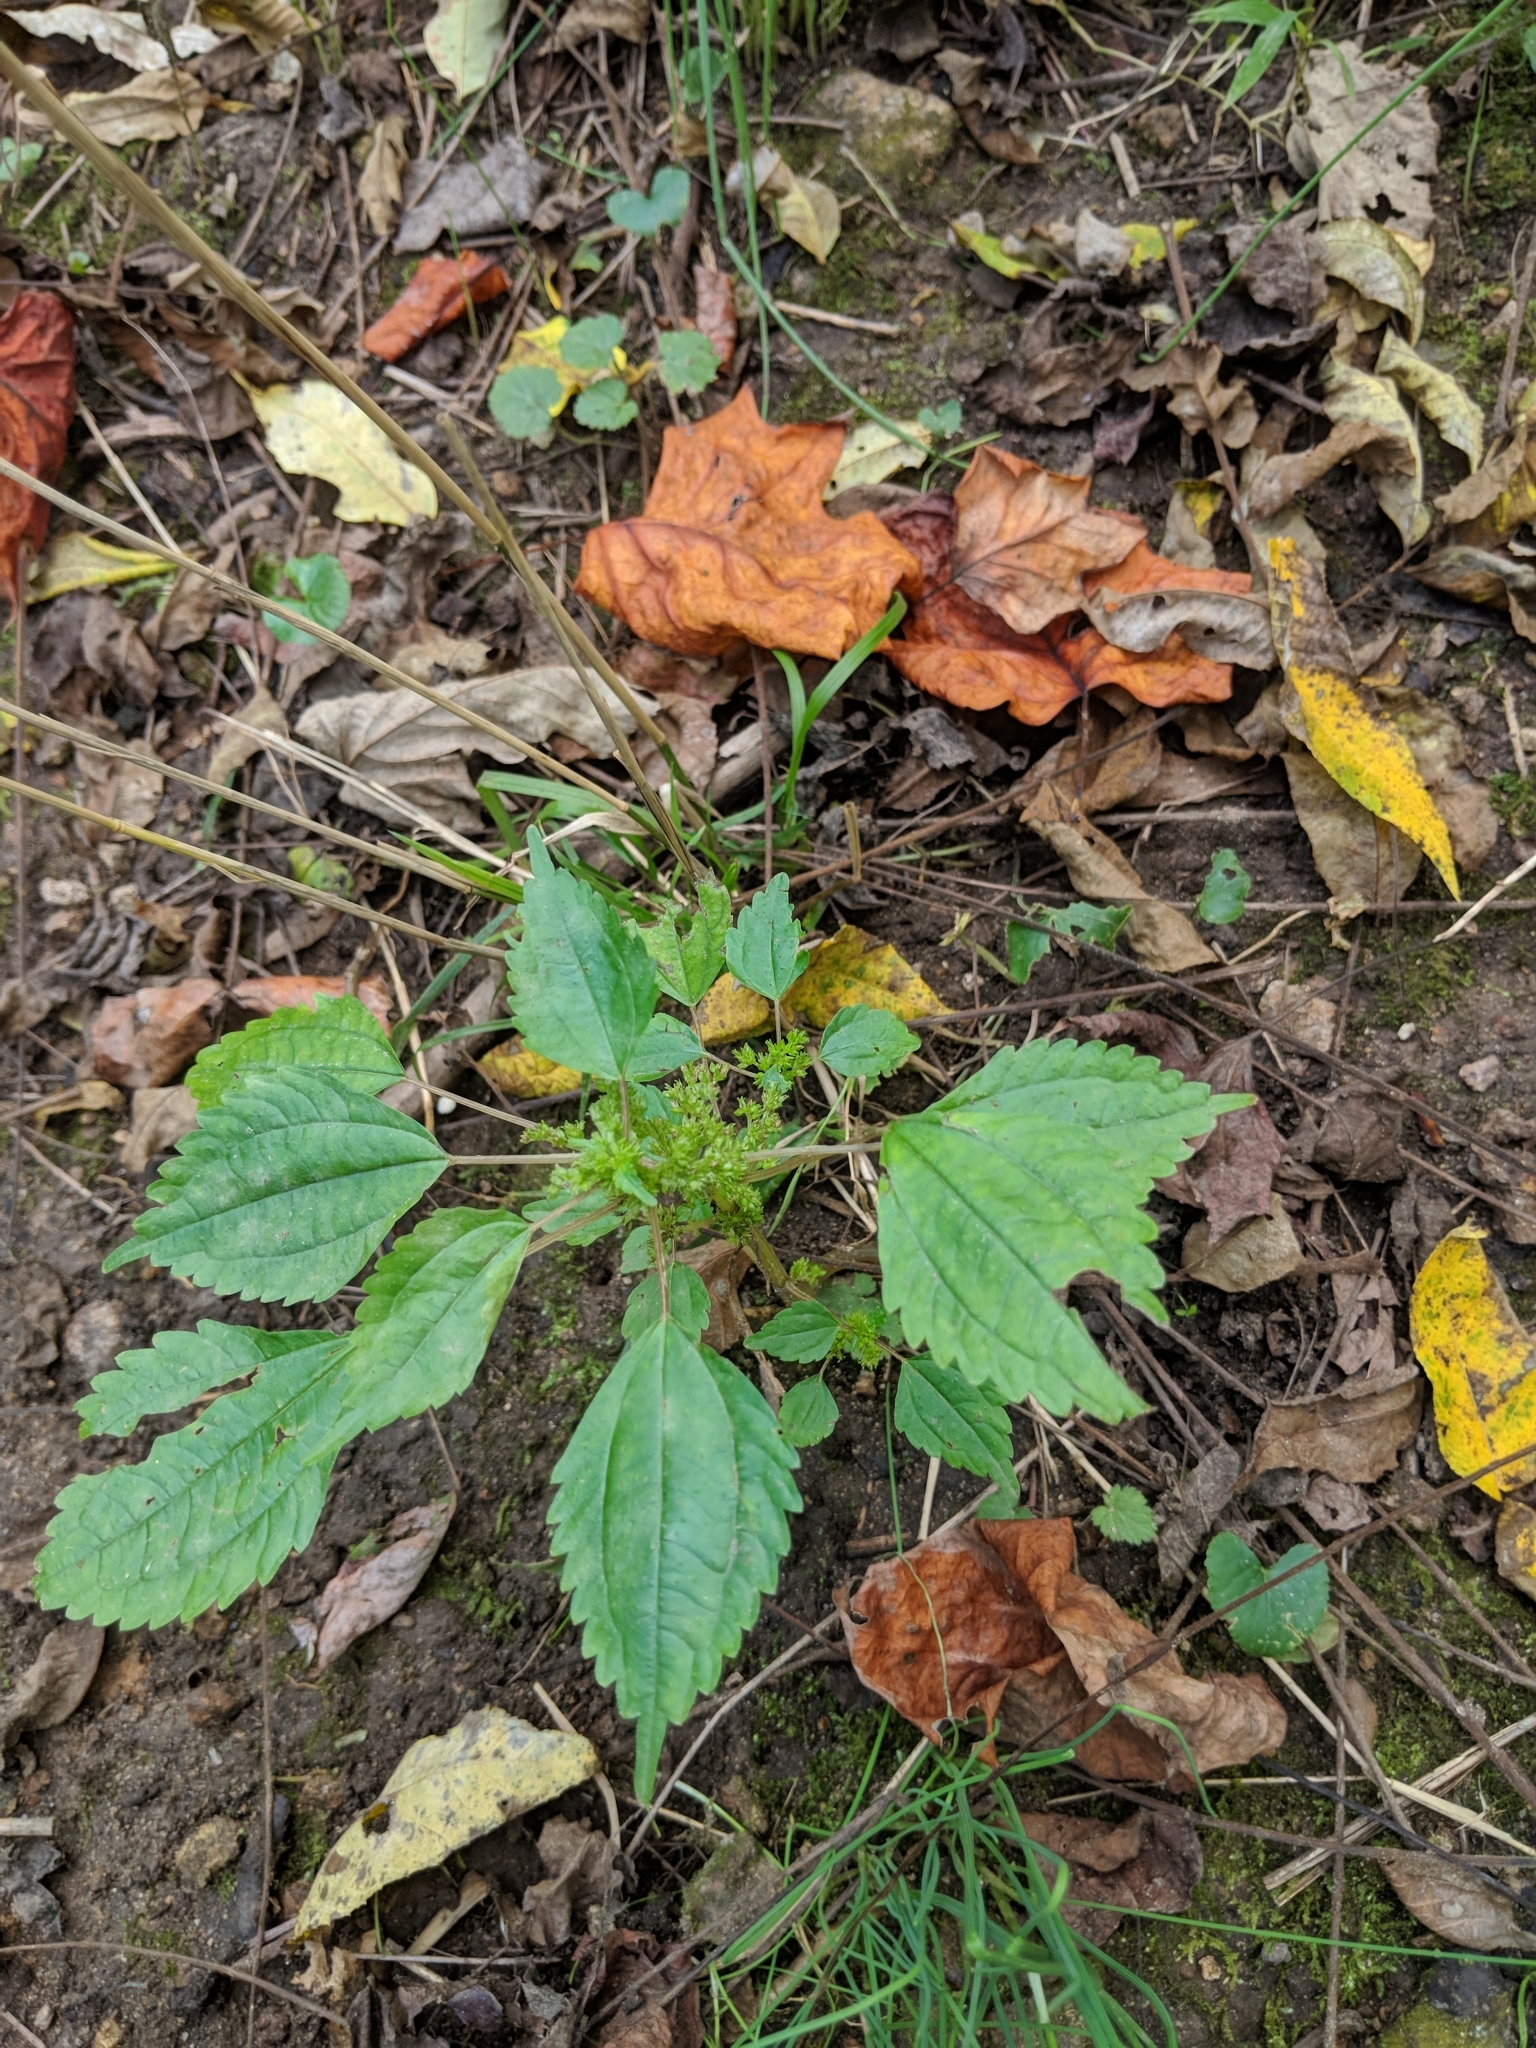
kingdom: Plantae
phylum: Tracheophyta
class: Magnoliopsida
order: Rosales
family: Urticaceae
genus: Pilea
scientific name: Pilea pumila
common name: Clearweed
